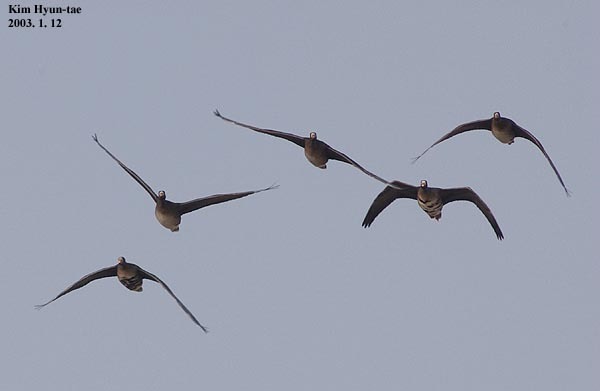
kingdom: Animalia
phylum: Chordata
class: Aves
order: Anseriformes
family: Anatidae
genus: Anser
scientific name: Anser albifrons
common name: Greater white-fronted goose
